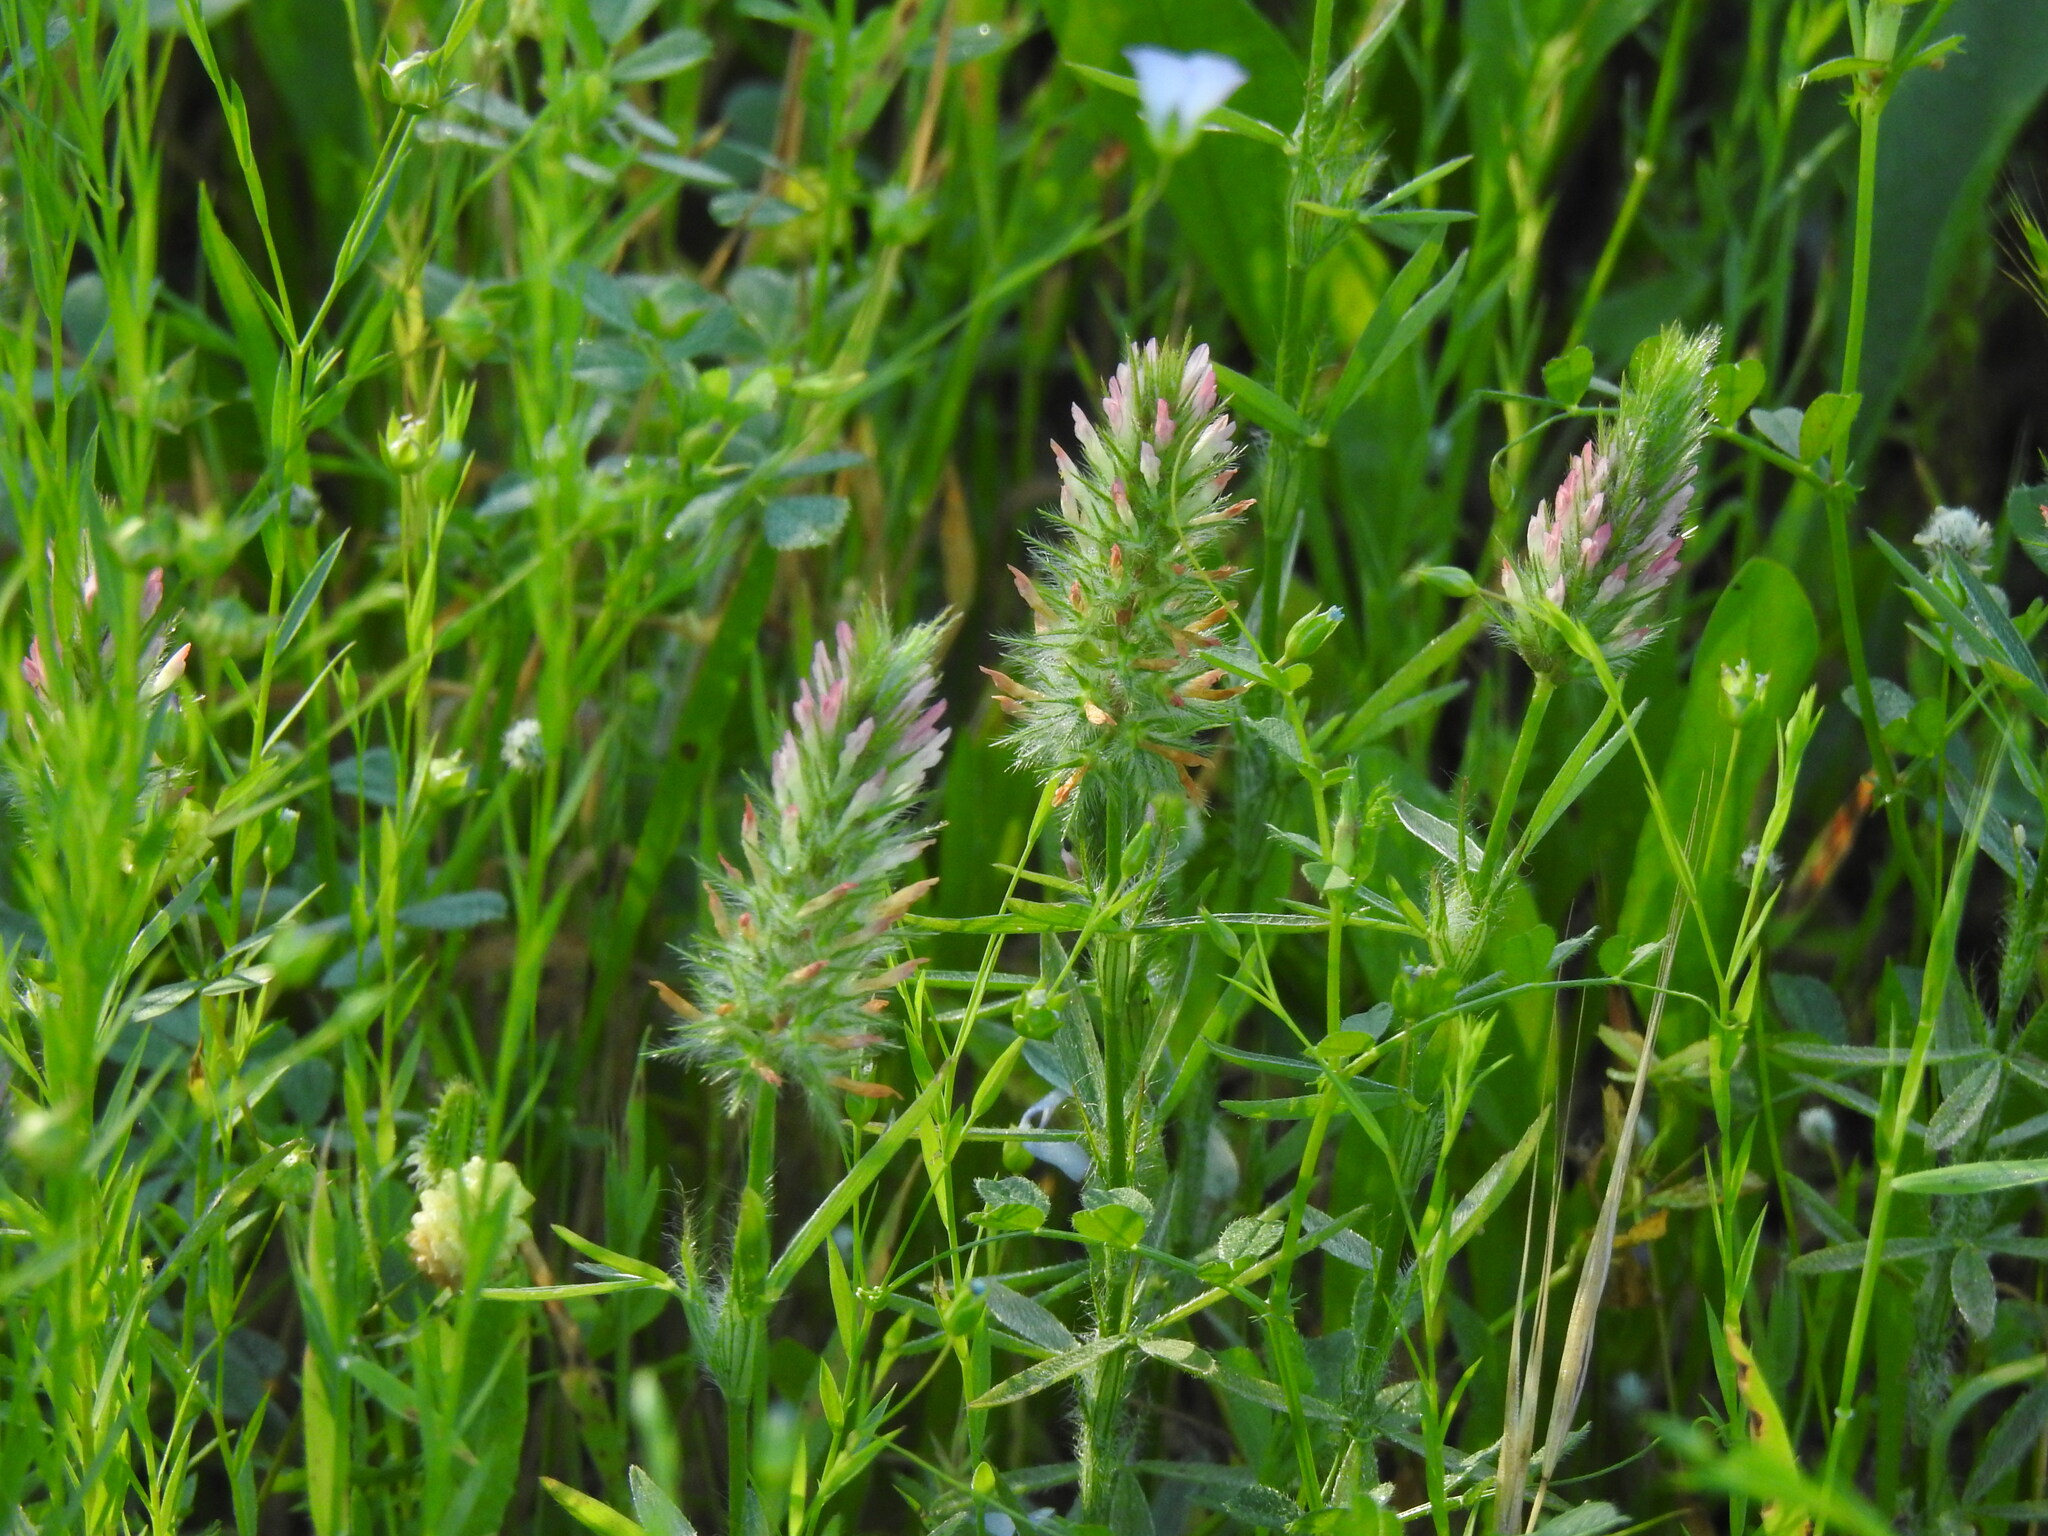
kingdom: Plantae
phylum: Tracheophyta
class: Magnoliopsida
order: Fabales
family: Fabaceae
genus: Trifolium
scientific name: Trifolium angustifolium
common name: Narrow clover
